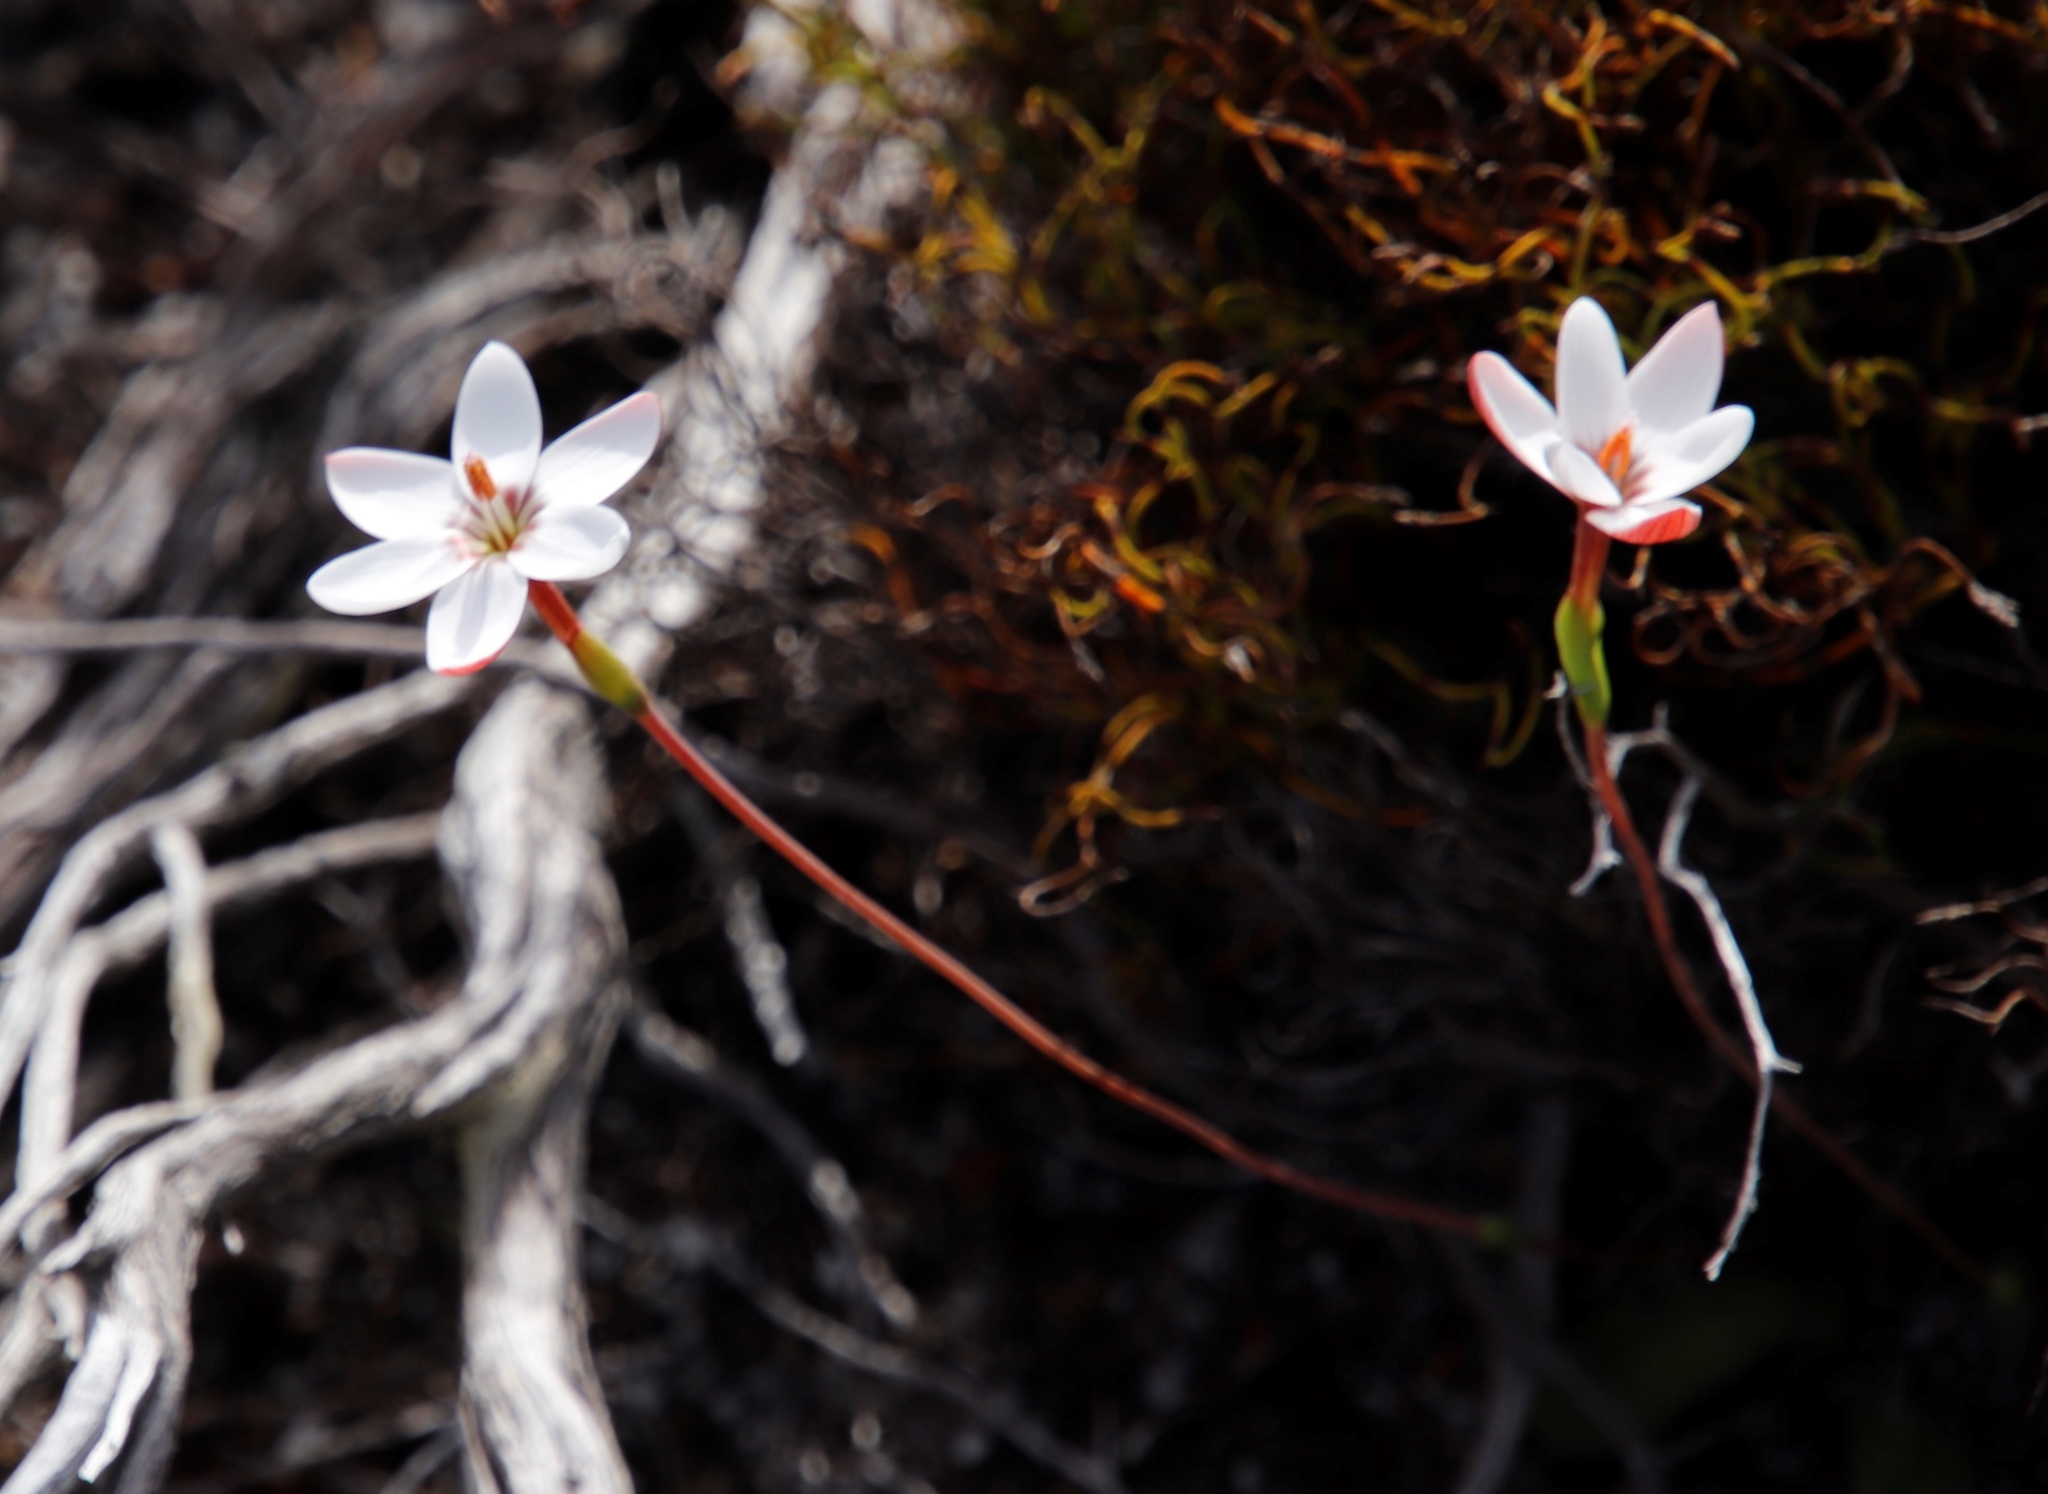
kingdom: Plantae
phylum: Tracheophyta
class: Liliopsida
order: Asparagales
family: Iridaceae
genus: Geissorhiza
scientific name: Geissorhiza ovata
